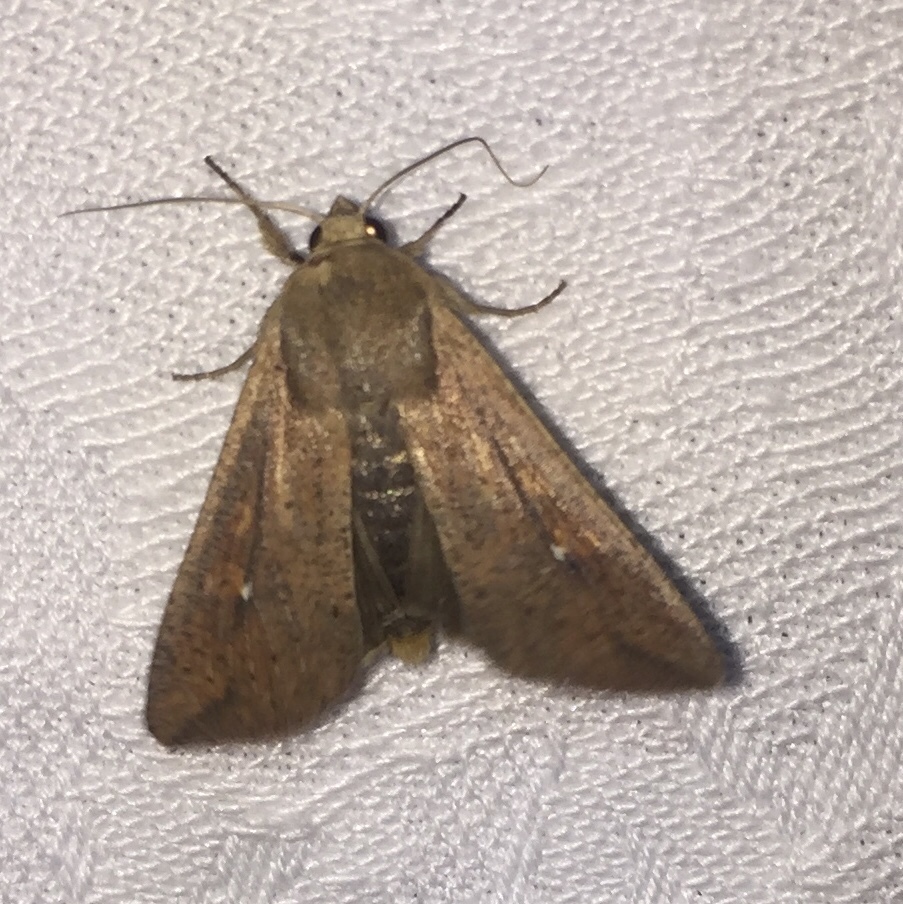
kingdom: Animalia
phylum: Arthropoda
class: Insecta
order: Lepidoptera
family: Noctuidae
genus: Mythimna
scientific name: Mythimna unipuncta
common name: White-speck
